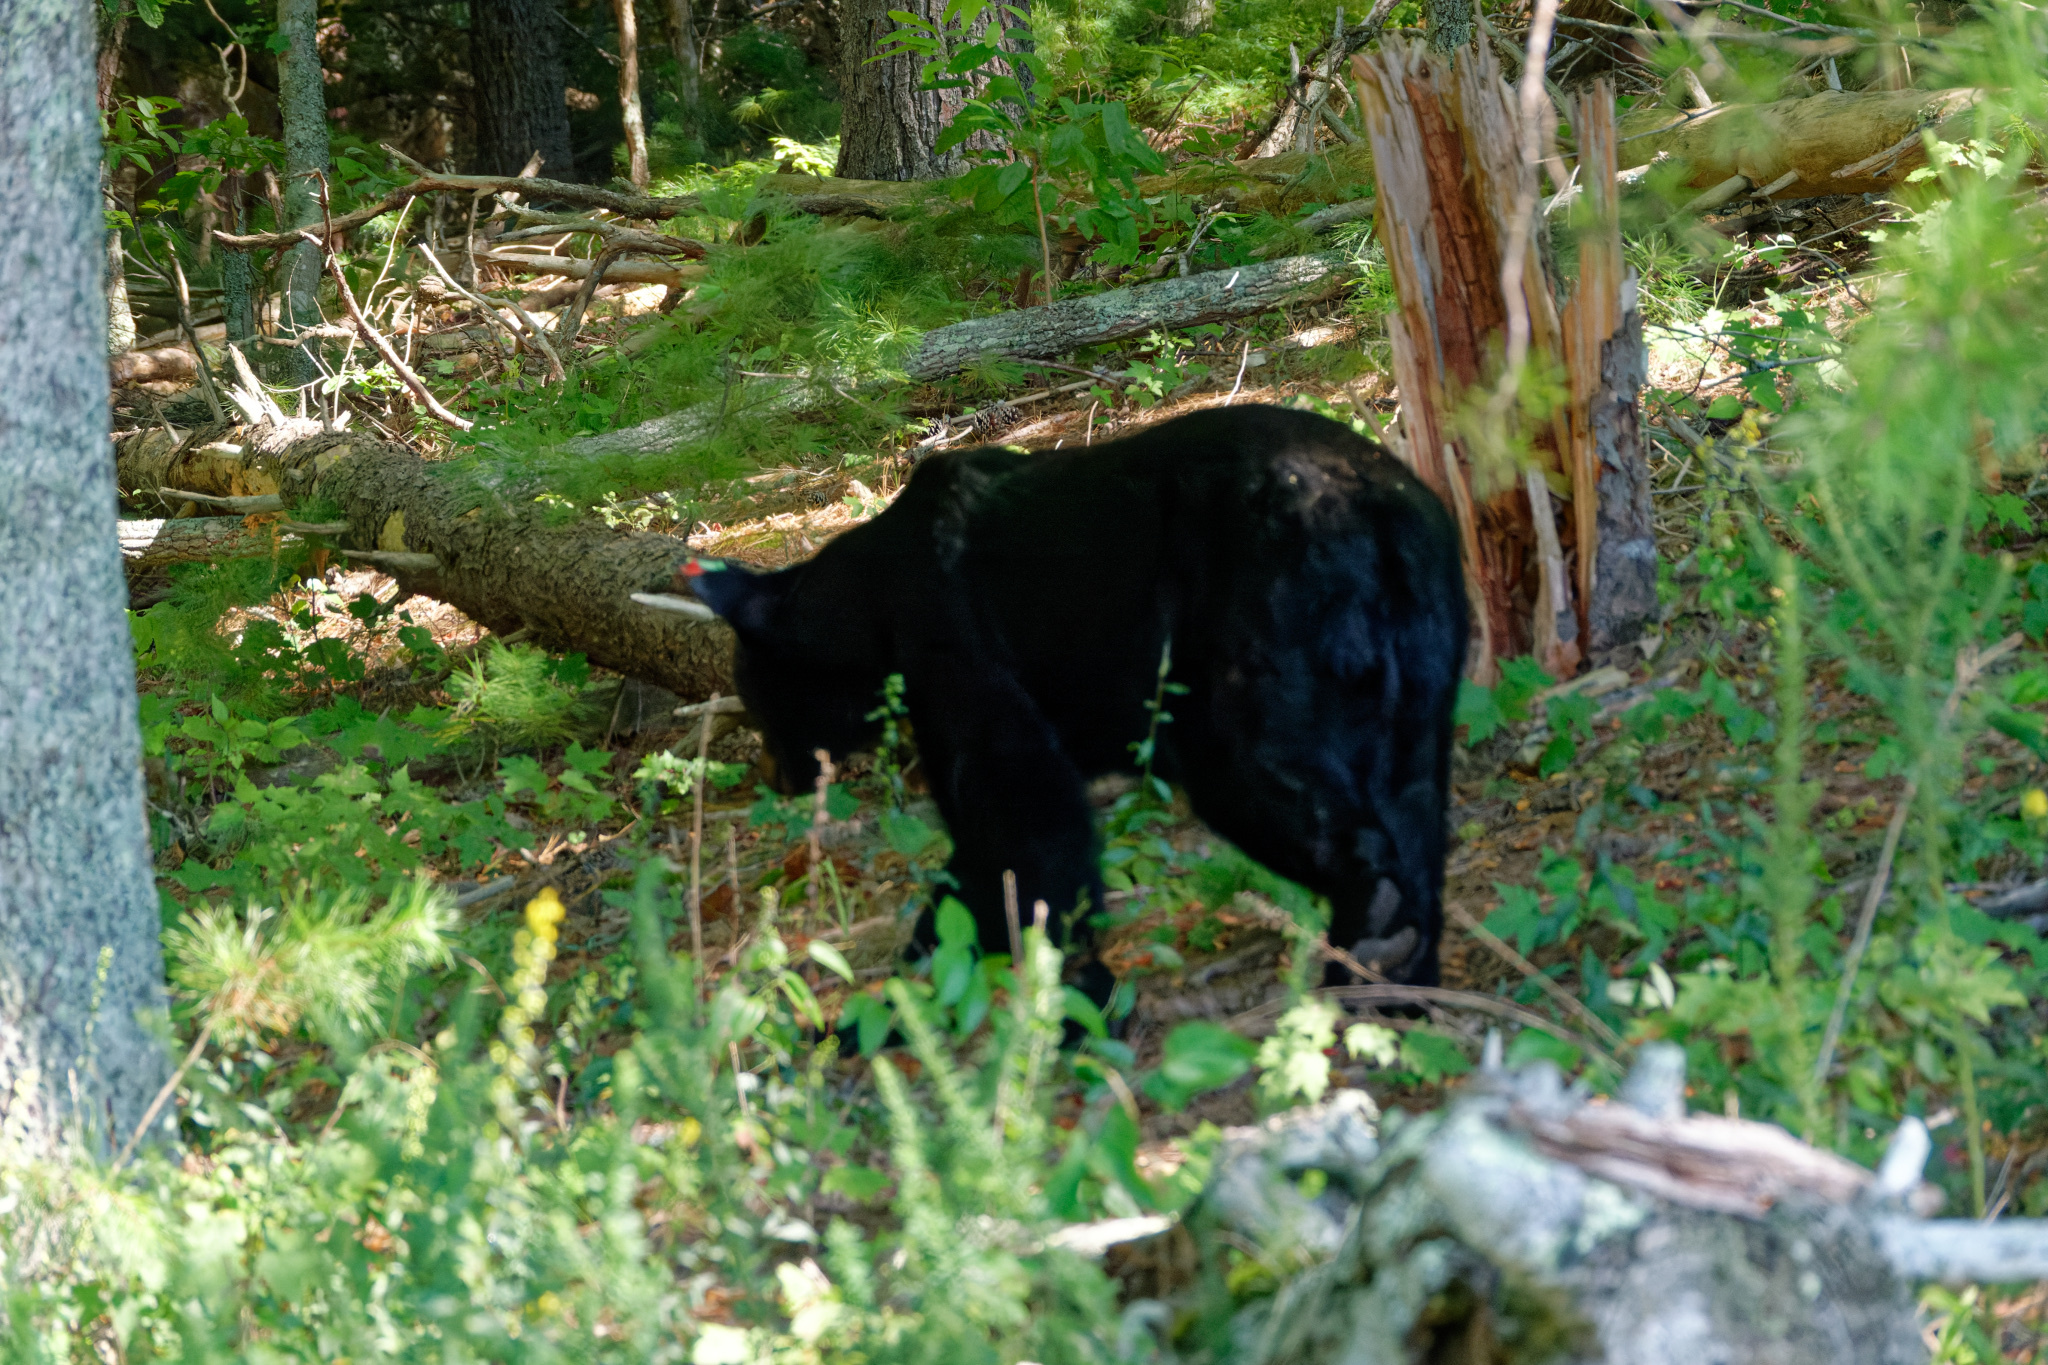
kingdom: Animalia
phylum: Chordata
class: Mammalia
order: Carnivora
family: Ursidae
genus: Ursus
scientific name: Ursus americanus
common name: American black bear
